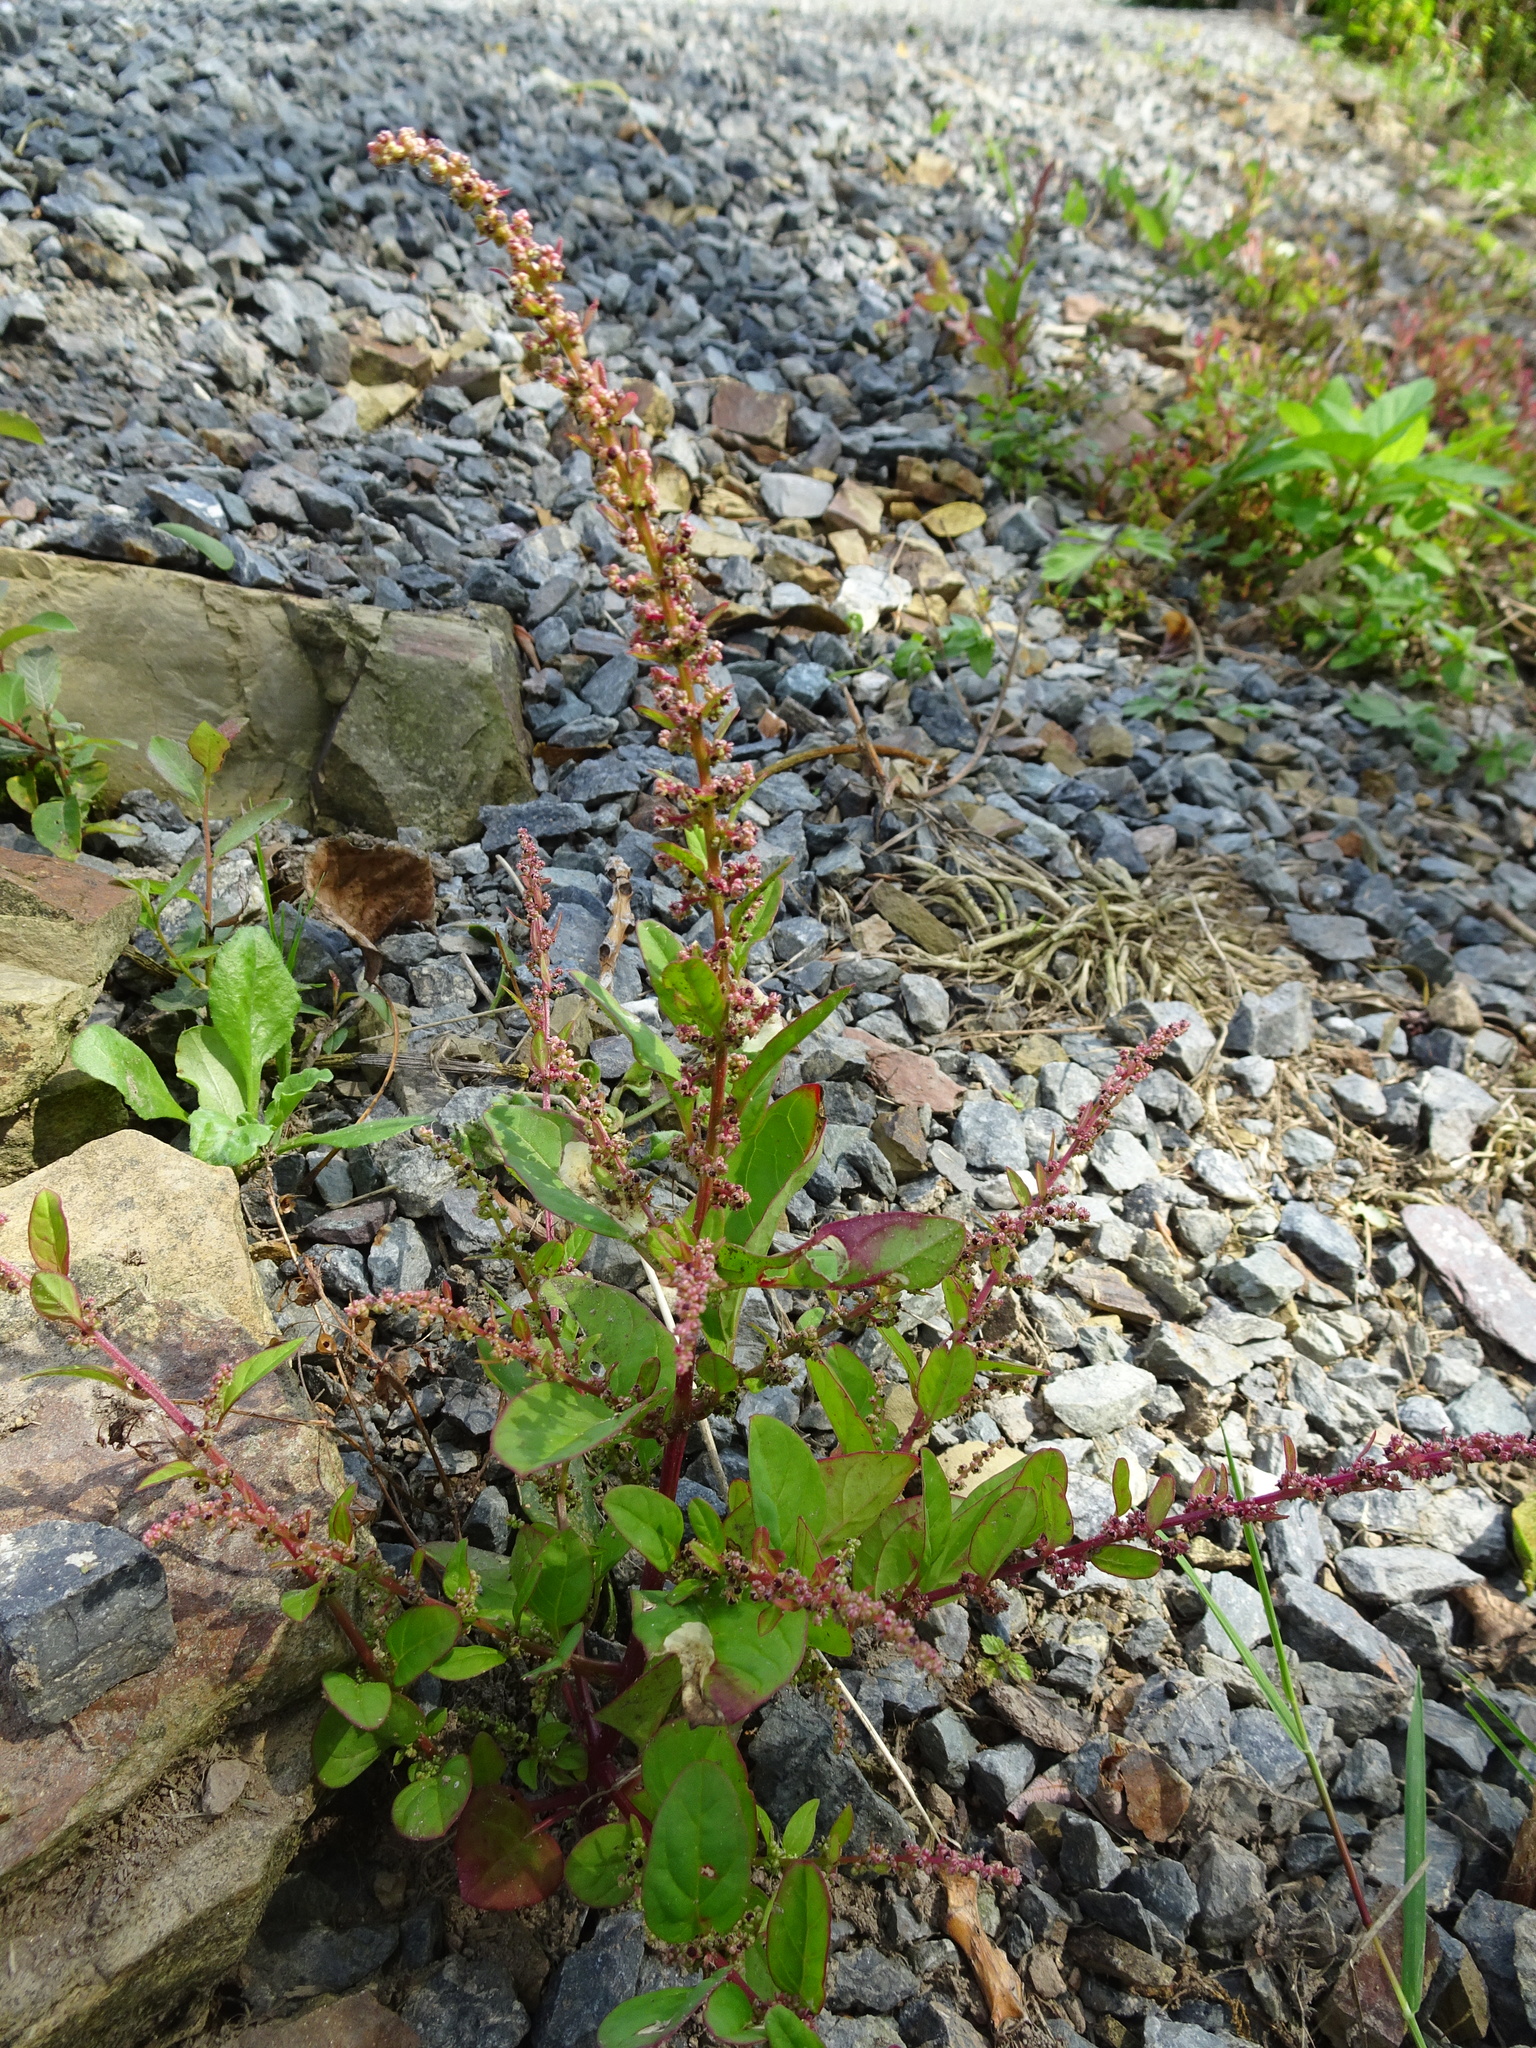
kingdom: Plantae
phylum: Tracheophyta
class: Magnoliopsida
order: Caryophyllales
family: Amaranthaceae
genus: Lipandra
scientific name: Lipandra polysperma
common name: Many-seed goosefoot
